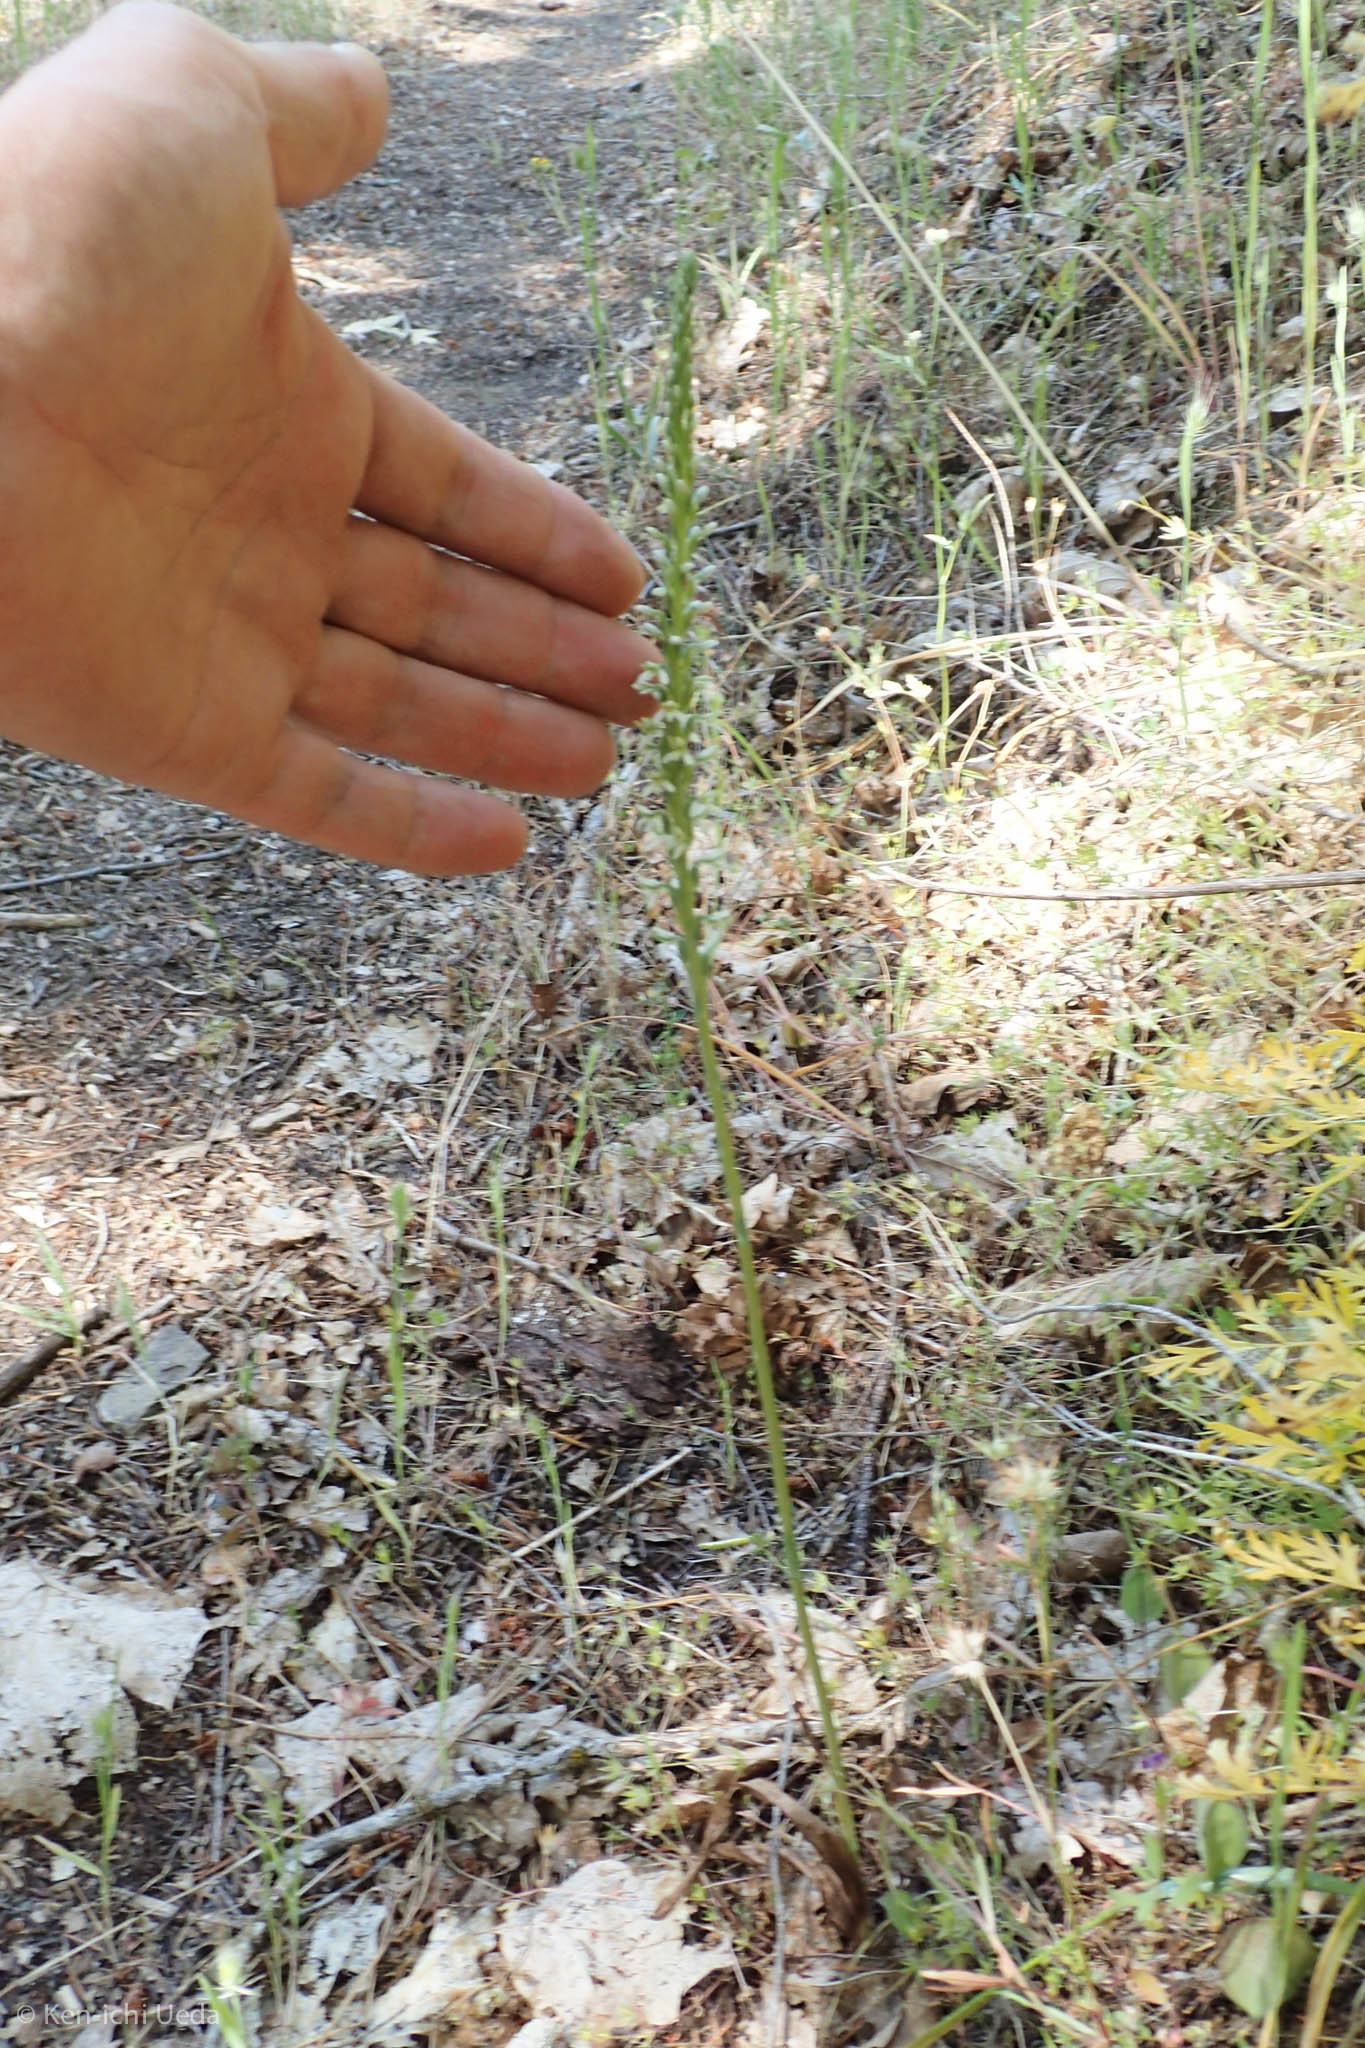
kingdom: Plantae
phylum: Tracheophyta
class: Liliopsida
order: Asparagales
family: Orchidaceae
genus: Platanthera
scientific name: Platanthera elegans
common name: Coast piperia
